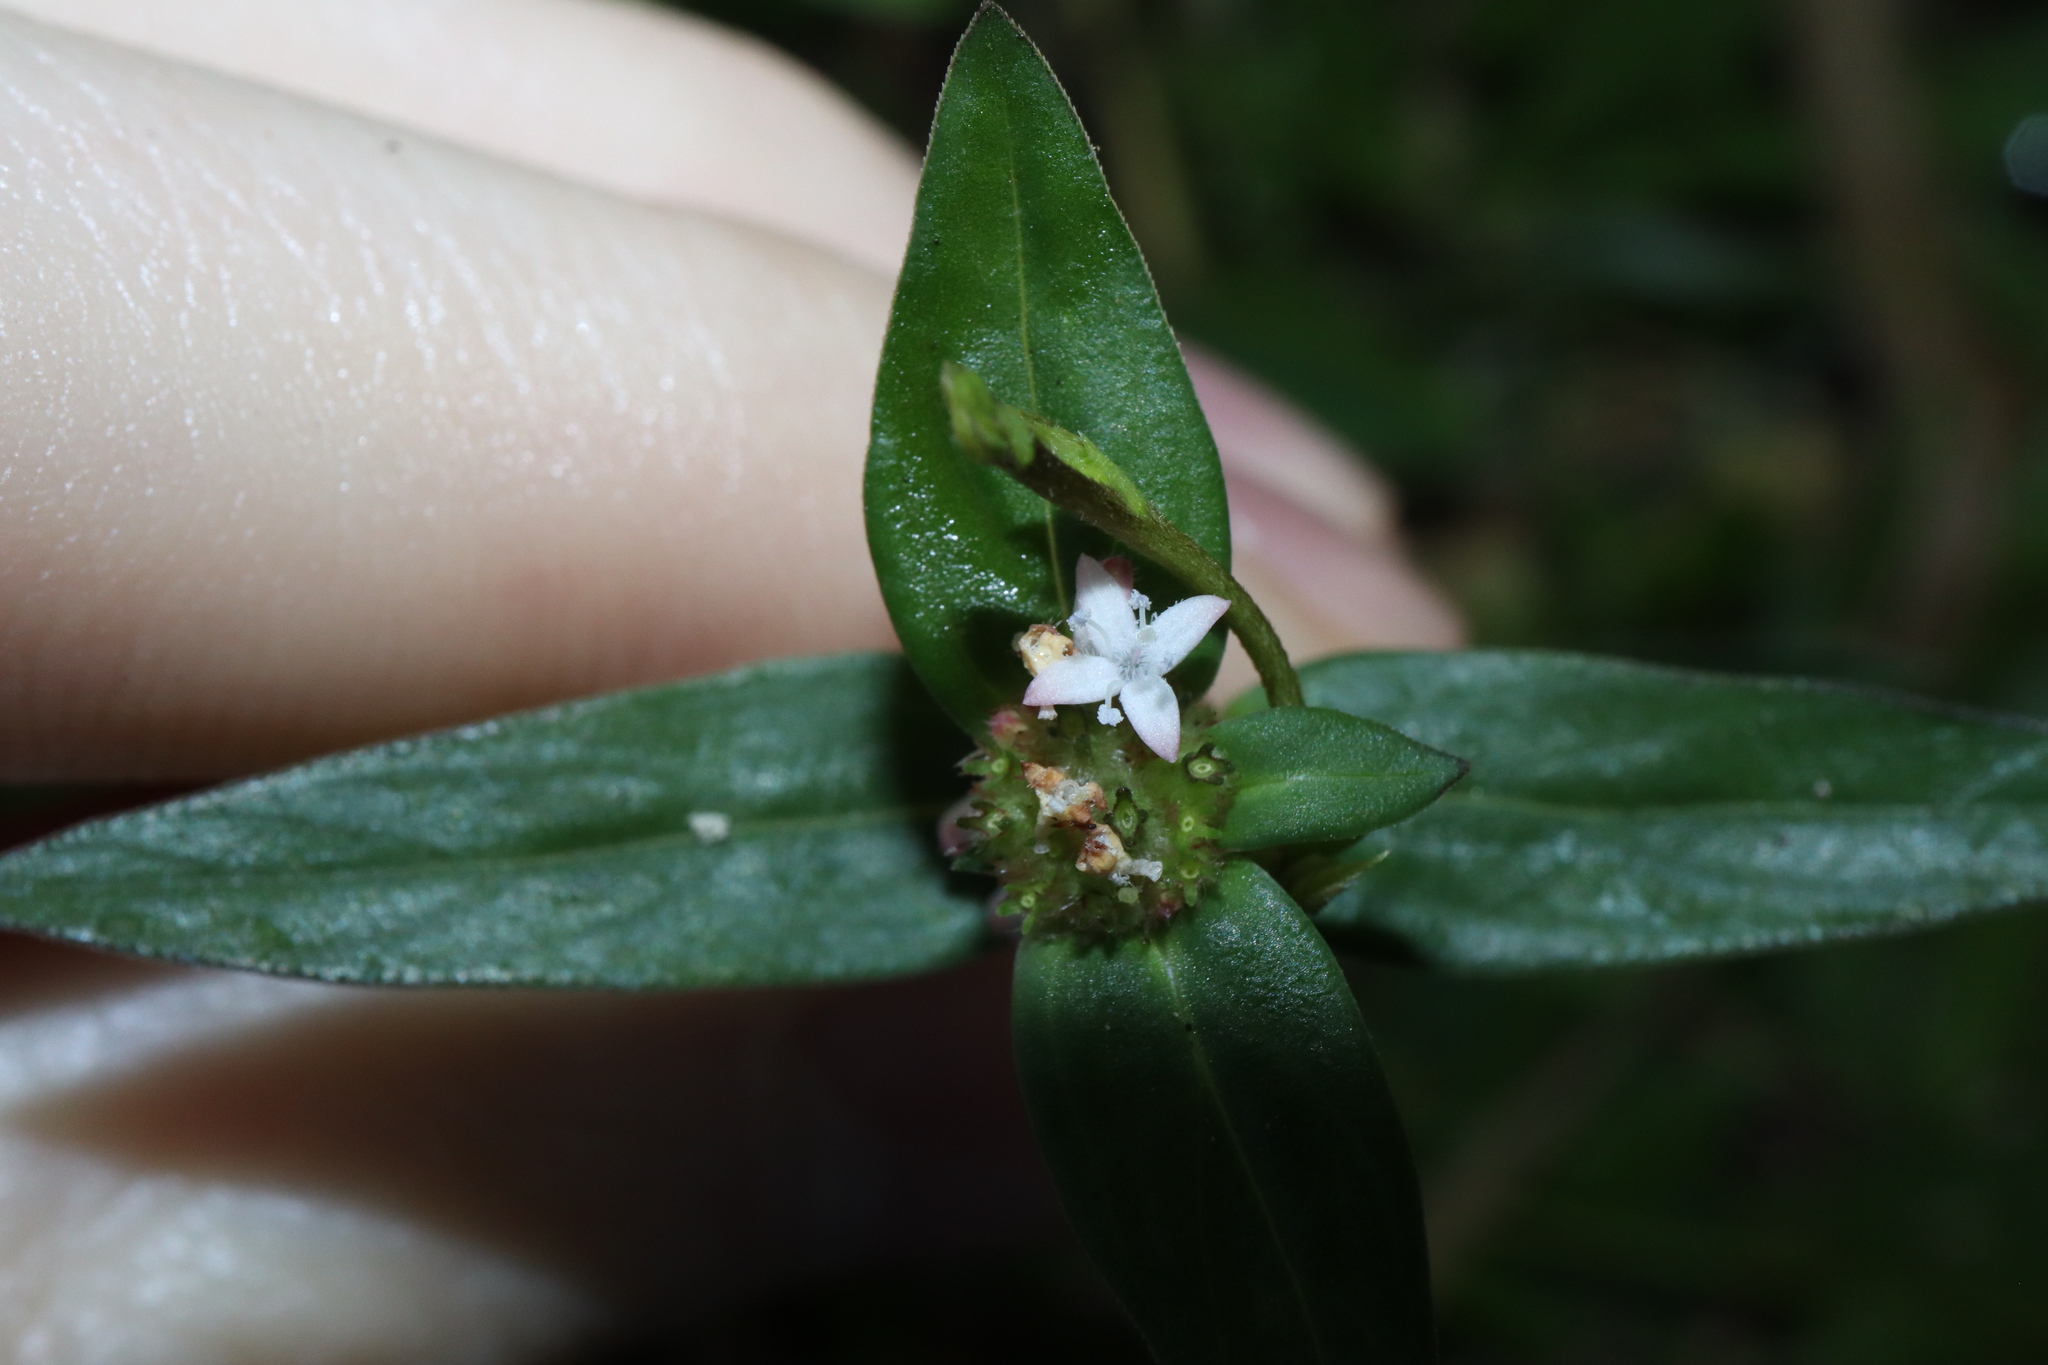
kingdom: Plantae
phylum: Tracheophyta
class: Magnoliopsida
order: Gentianales
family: Rubiaceae
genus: Spermacoce
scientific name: Spermacoce remota
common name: Woodland false buttonweed
